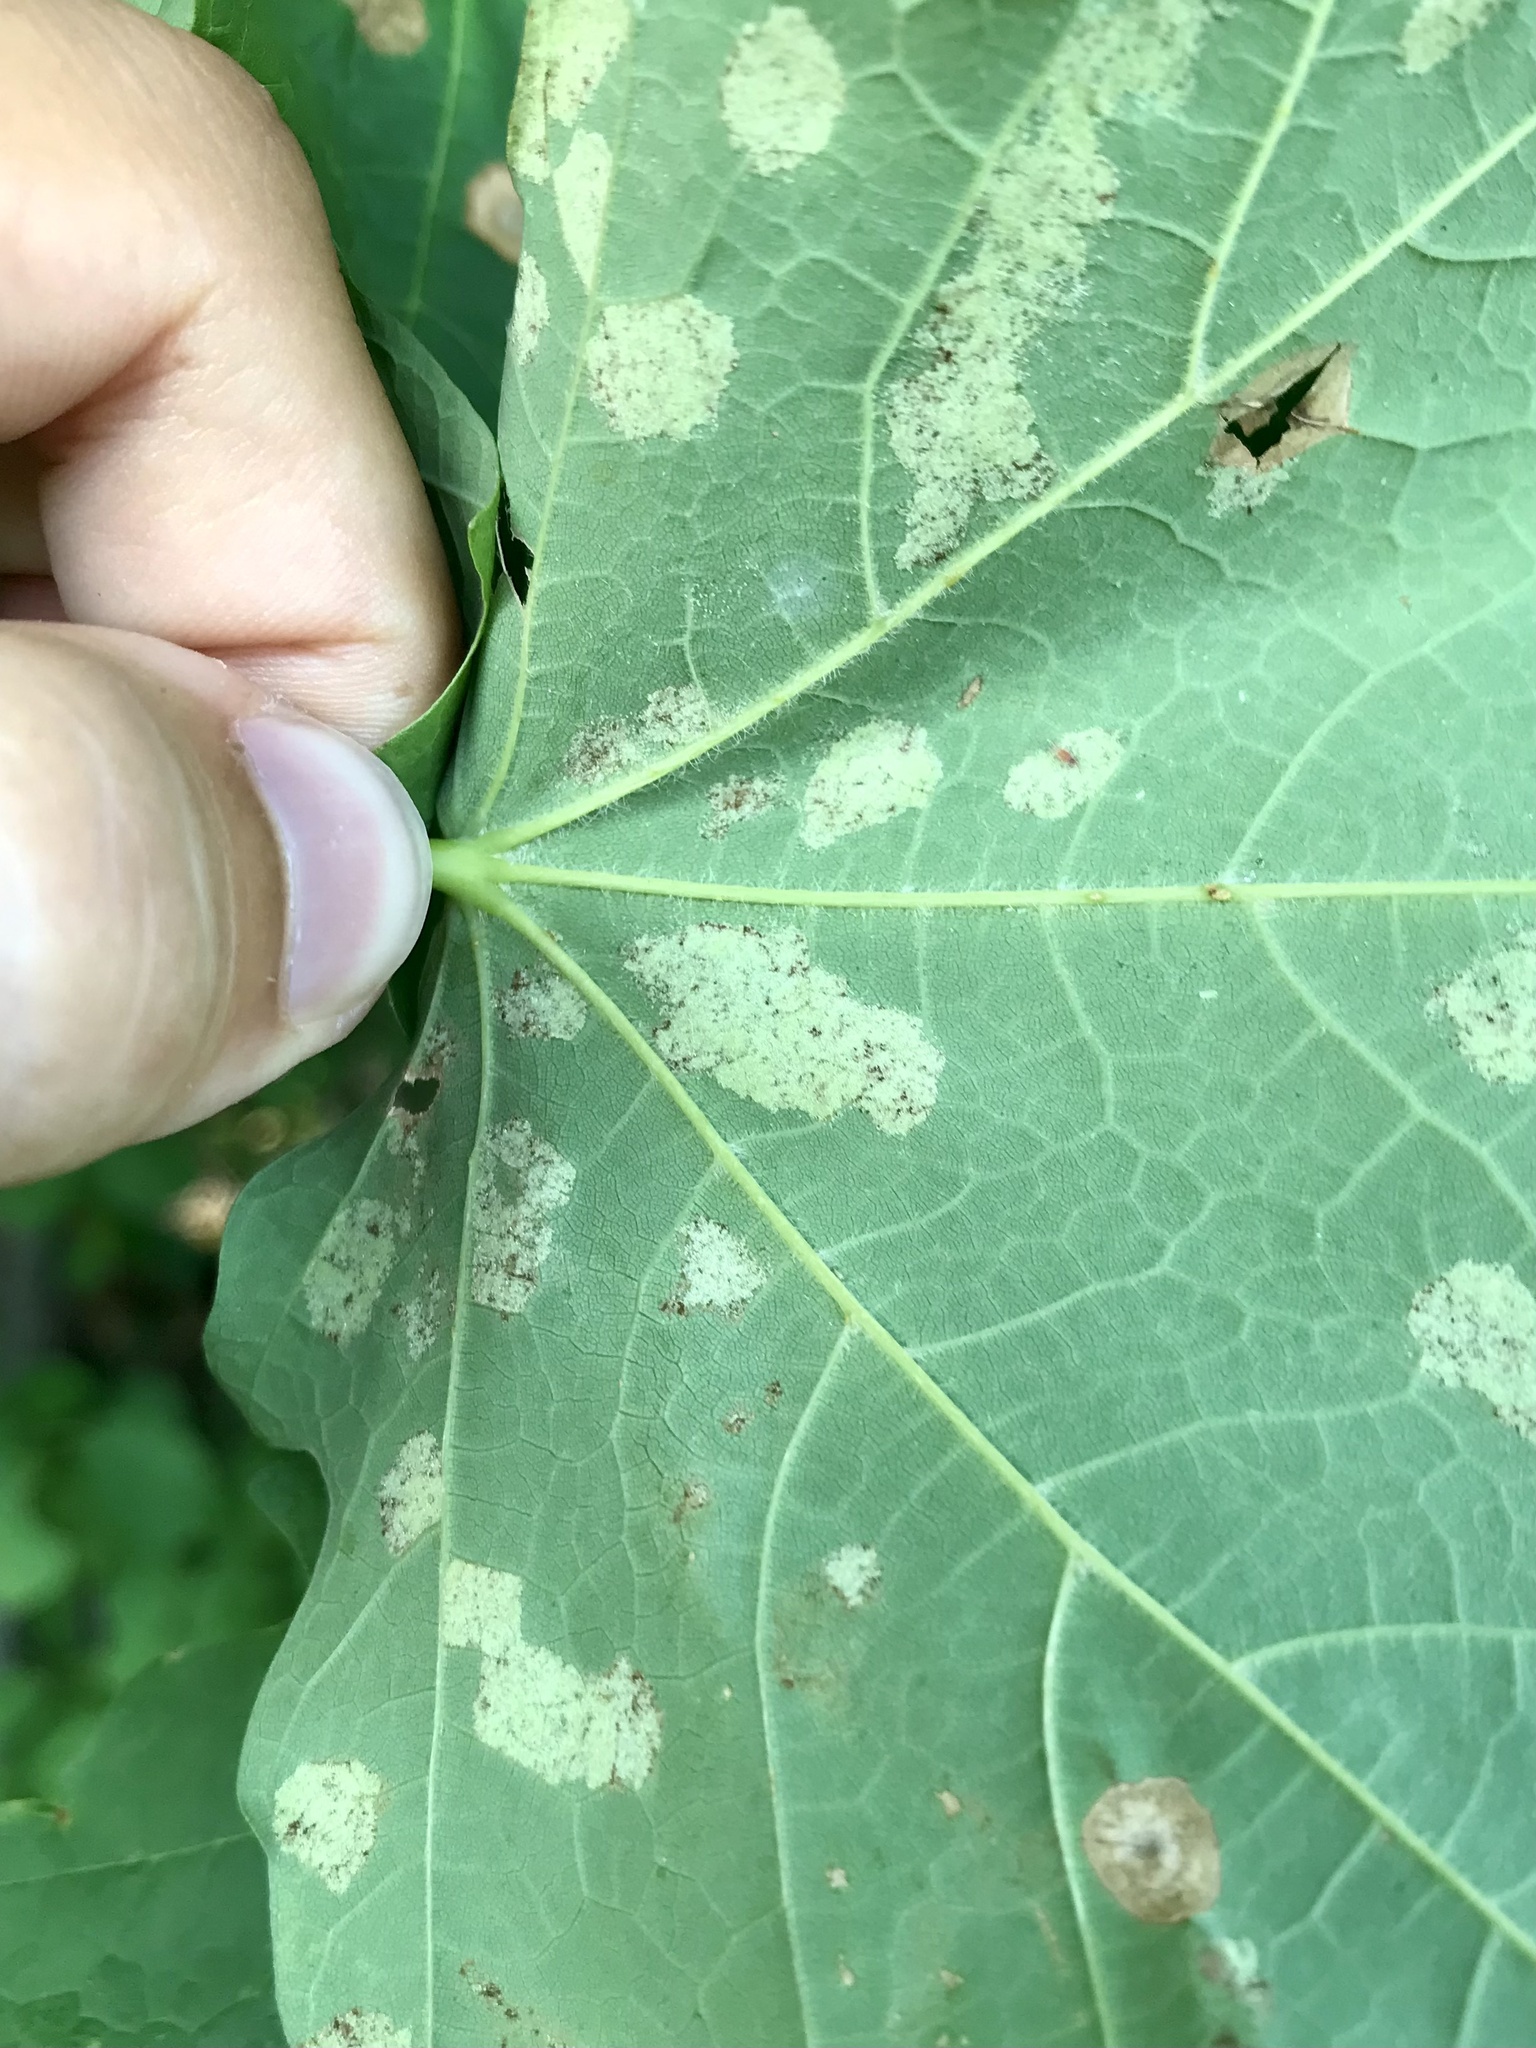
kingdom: Animalia
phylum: Arthropoda
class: Arachnida
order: Trombidiformes
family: Eriophyidae
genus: Aceria
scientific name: Aceria
